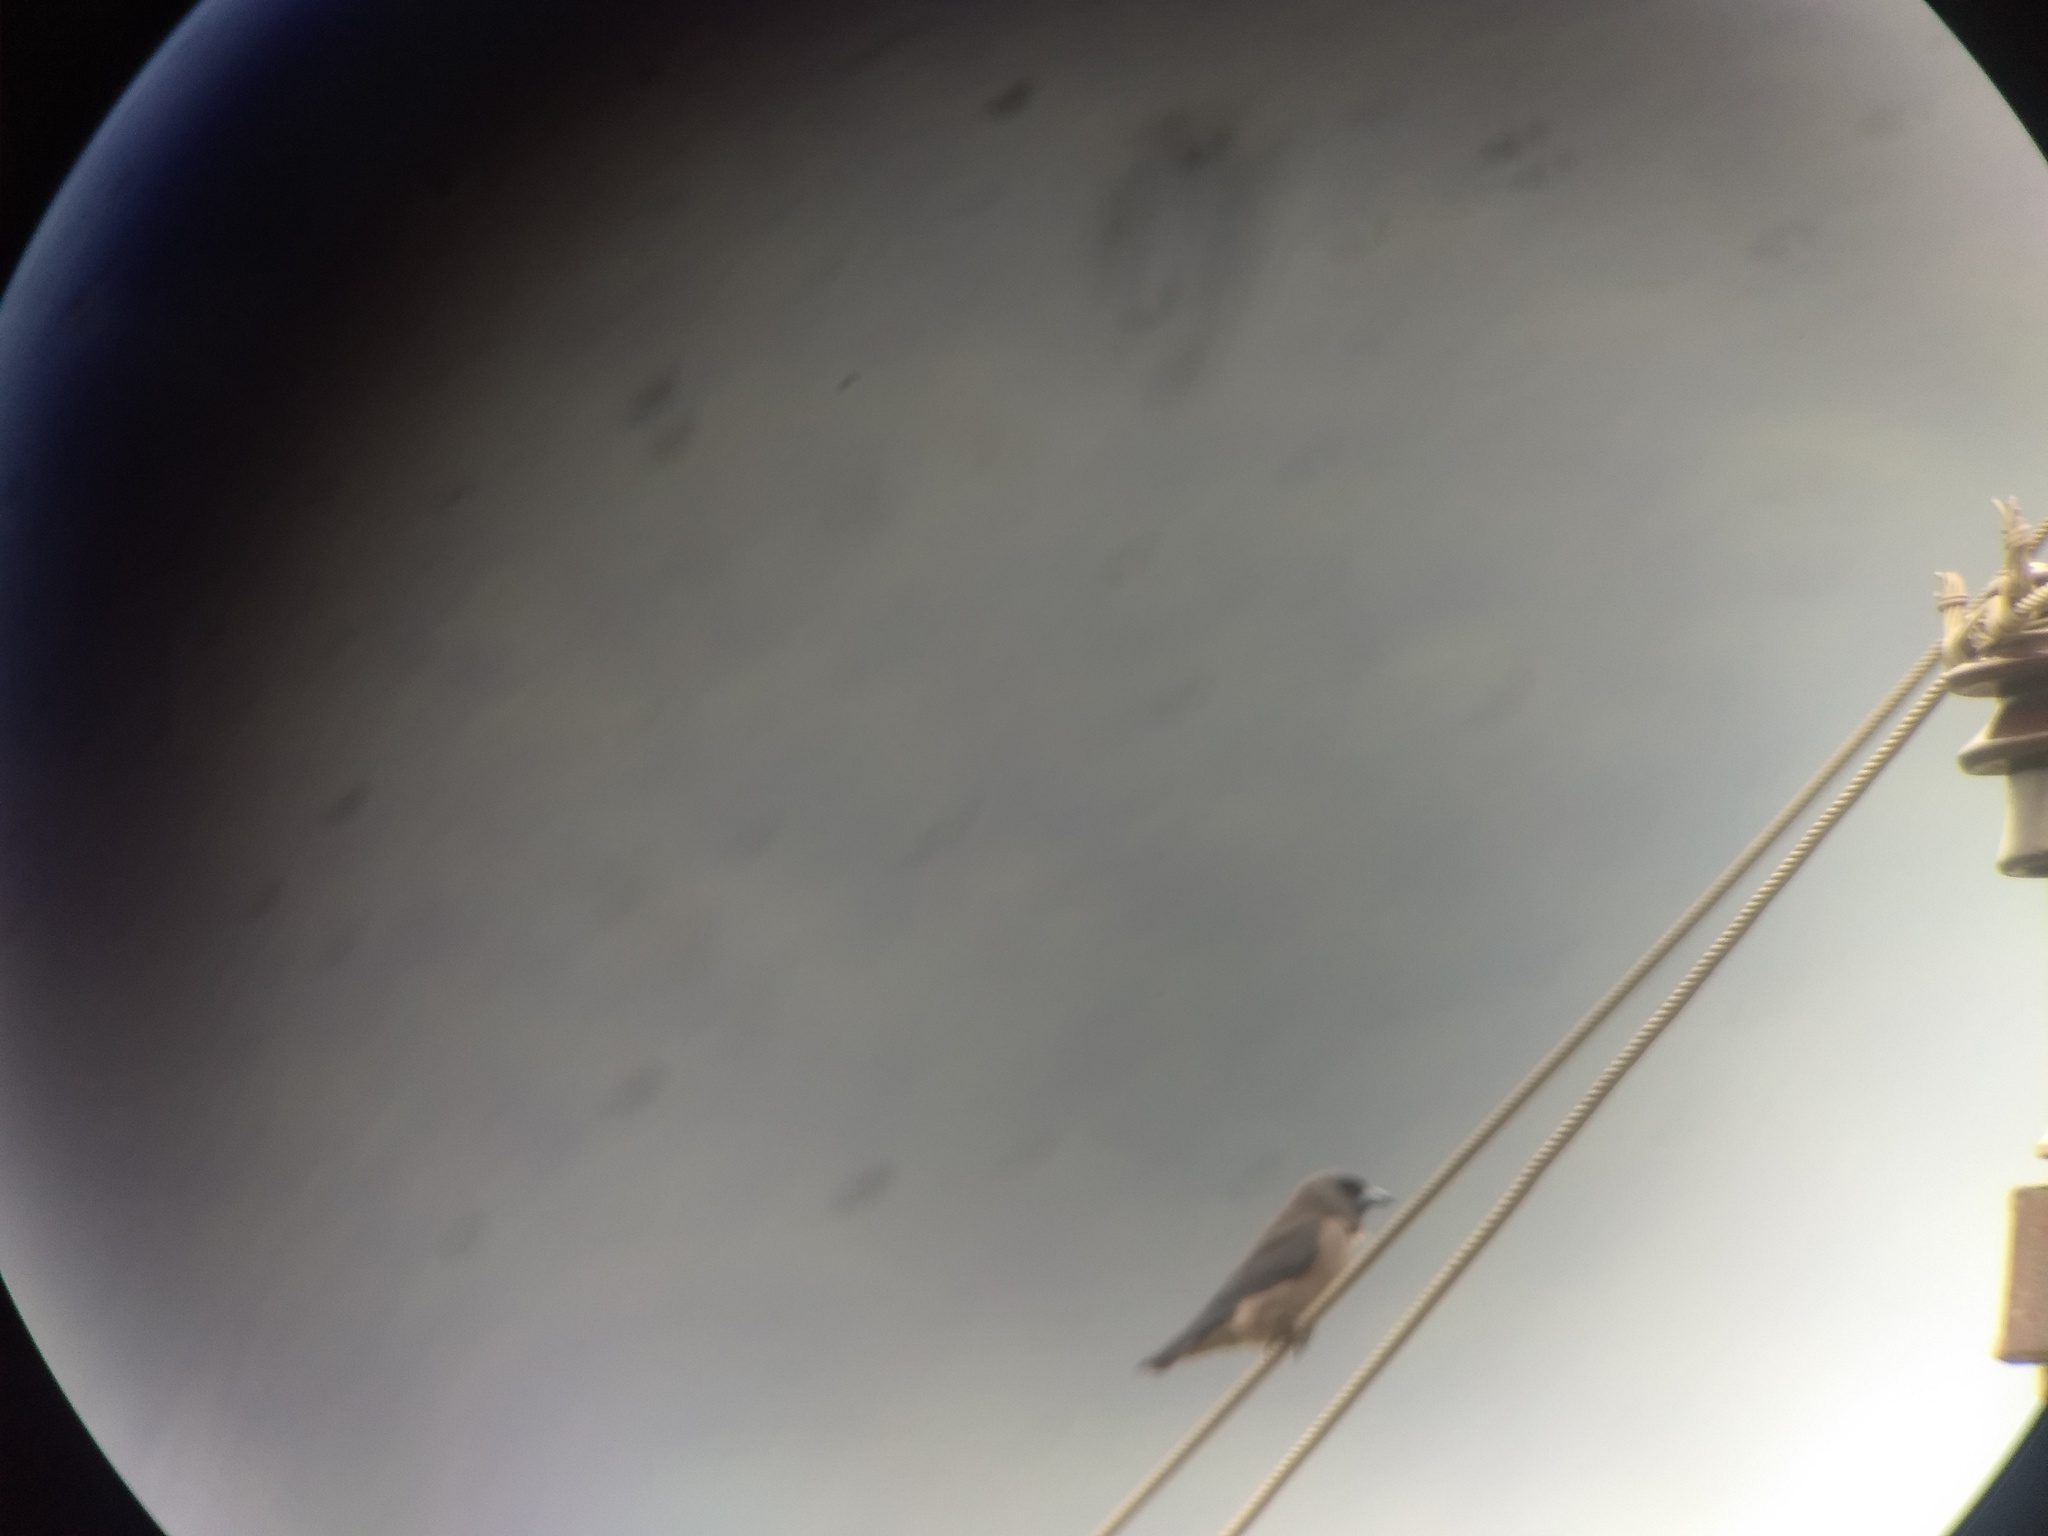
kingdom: Animalia
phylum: Chordata
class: Aves
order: Passeriformes
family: Artamidae
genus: Artamus
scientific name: Artamus fuscus
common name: Ashy woodswallow
